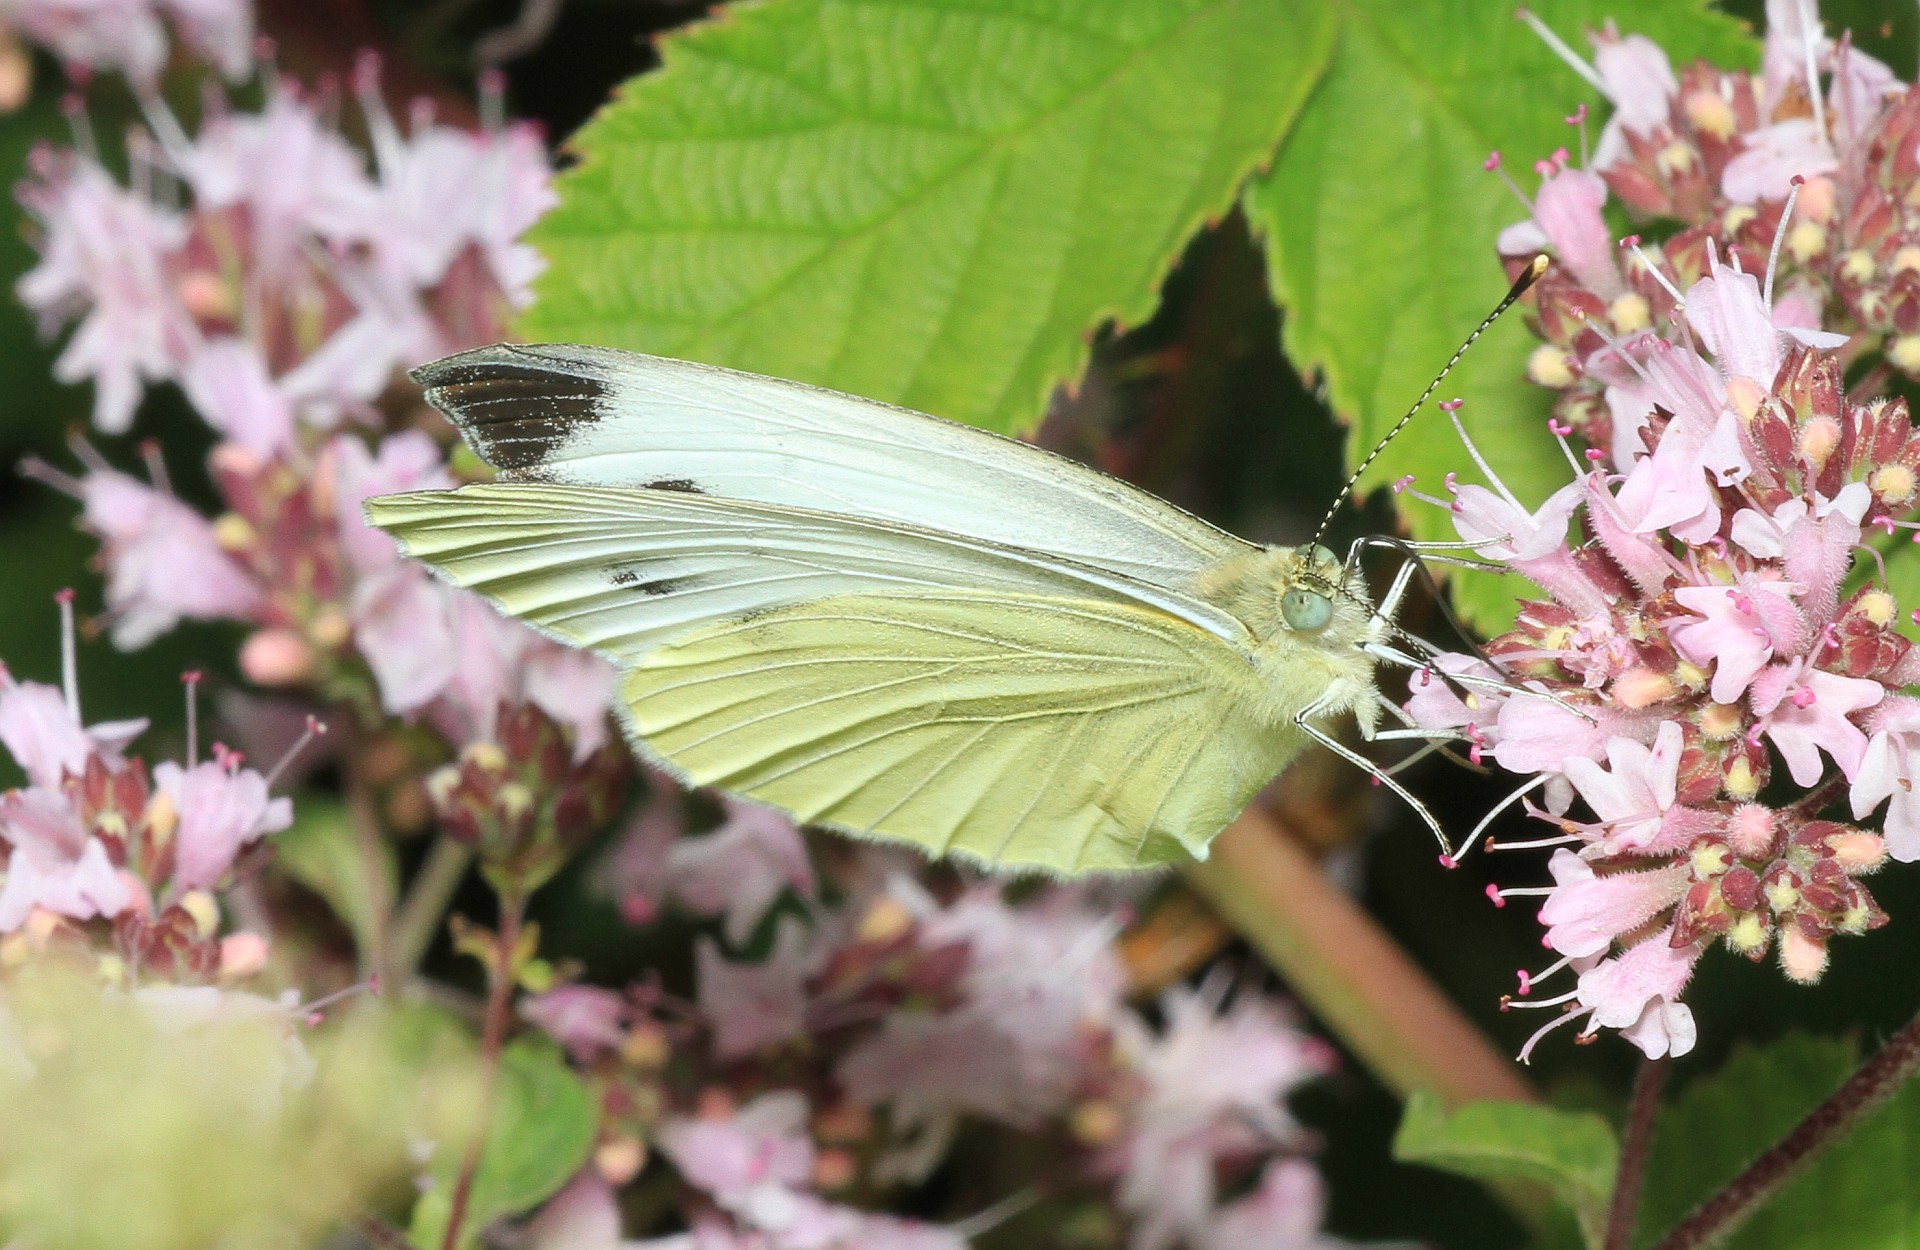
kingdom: Animalia
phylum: Arthropoda
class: Insecta
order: Lepidoptera
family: Pieridae
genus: Pieris
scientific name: Pieris napi
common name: Green-veined white
